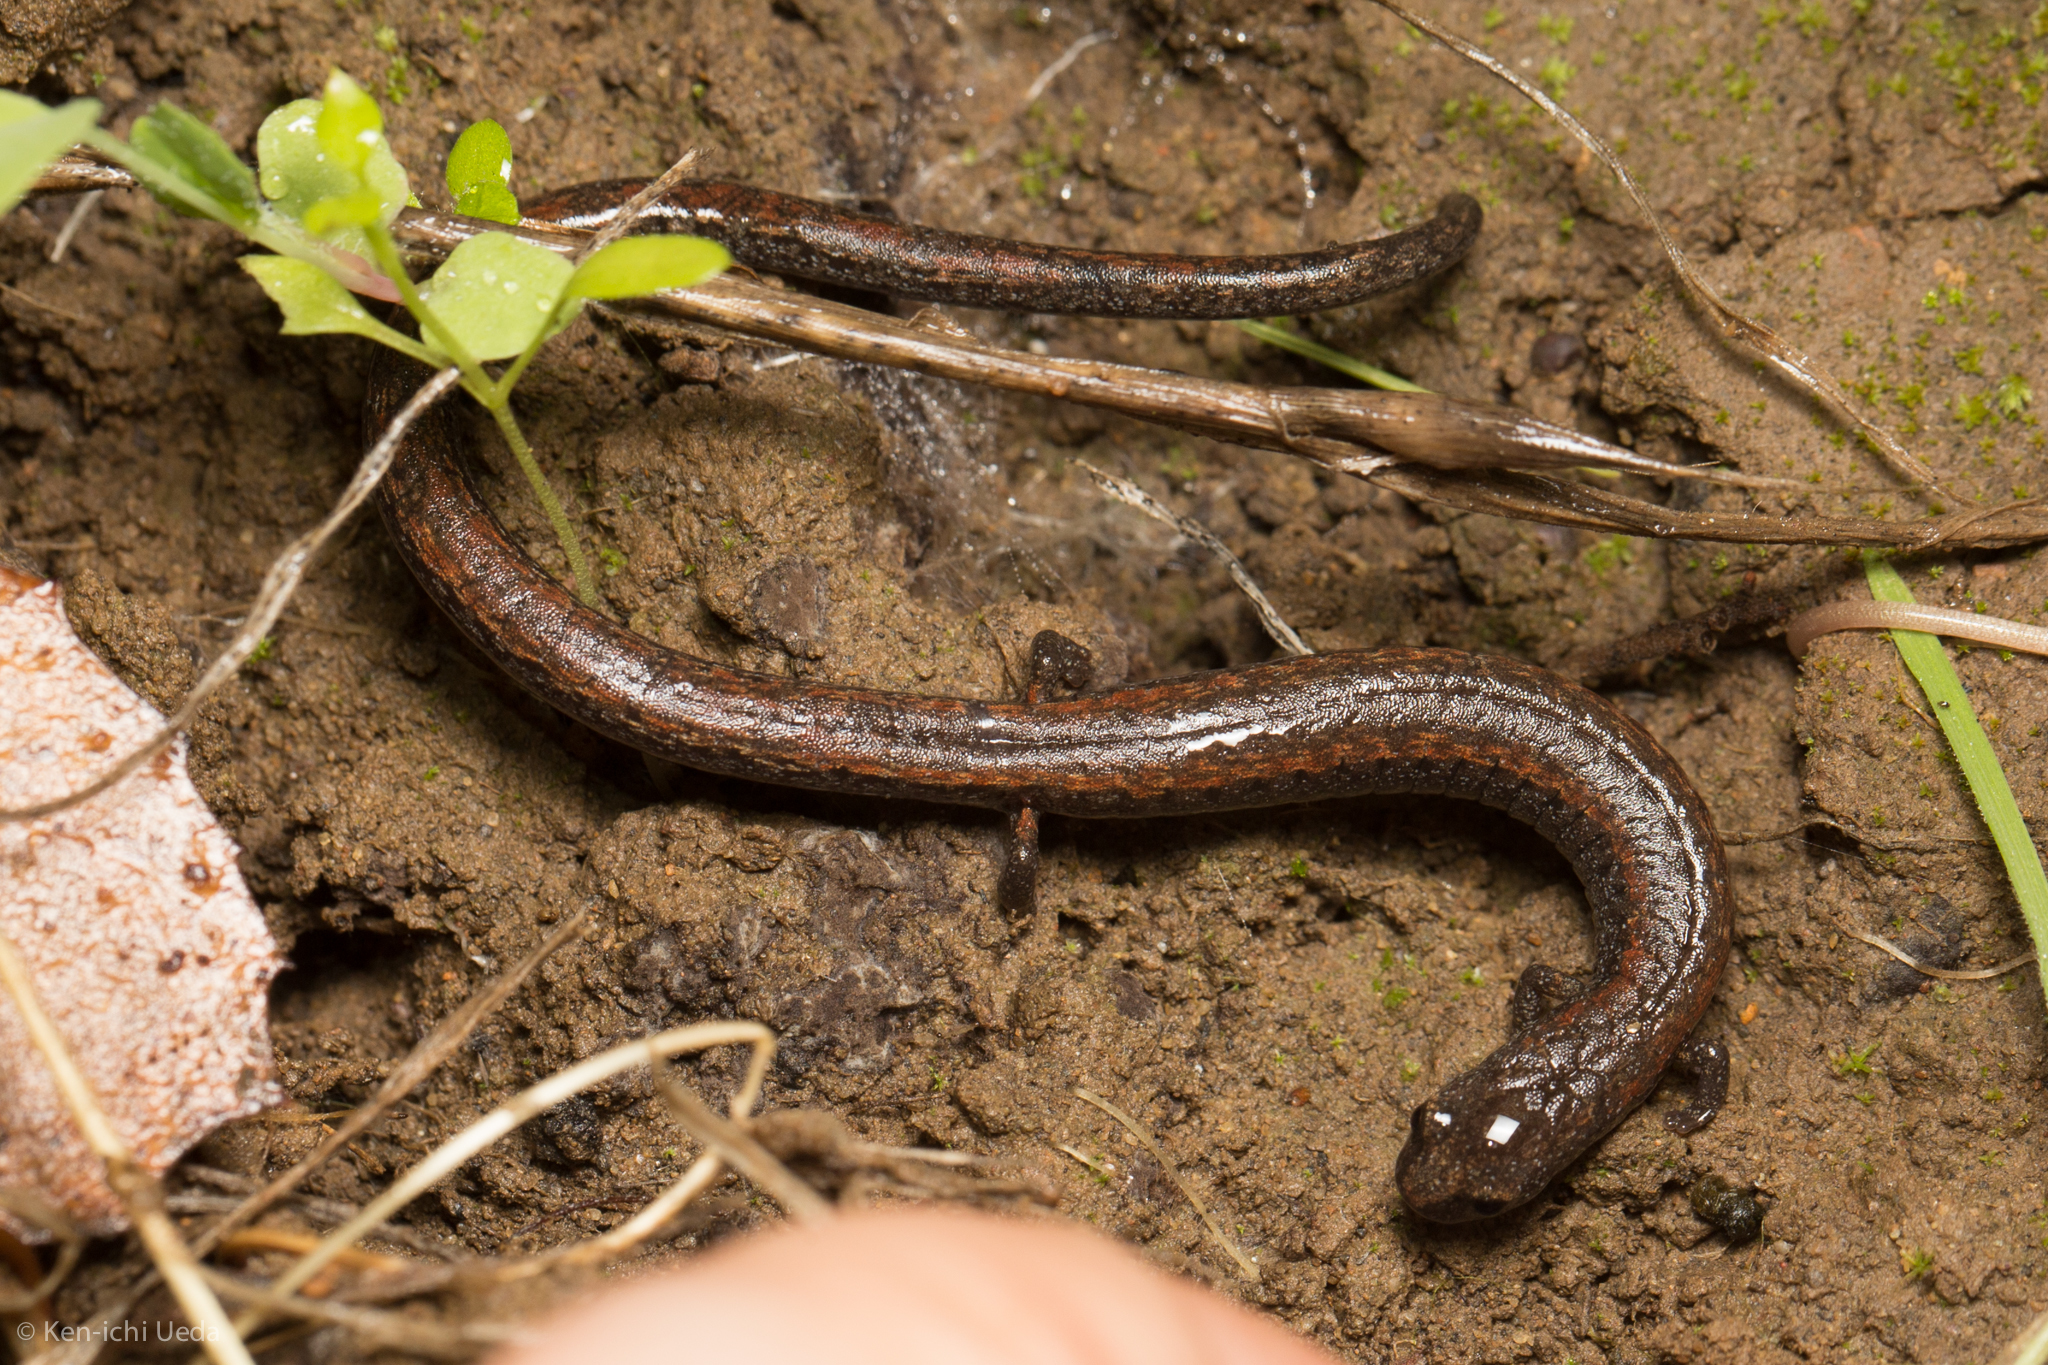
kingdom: Animalia
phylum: Chordata
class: Amphibia
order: Caudata
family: Plethodontidae
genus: Batrachoseps
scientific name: Batrachoseps attenuatus
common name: California slender salamander
